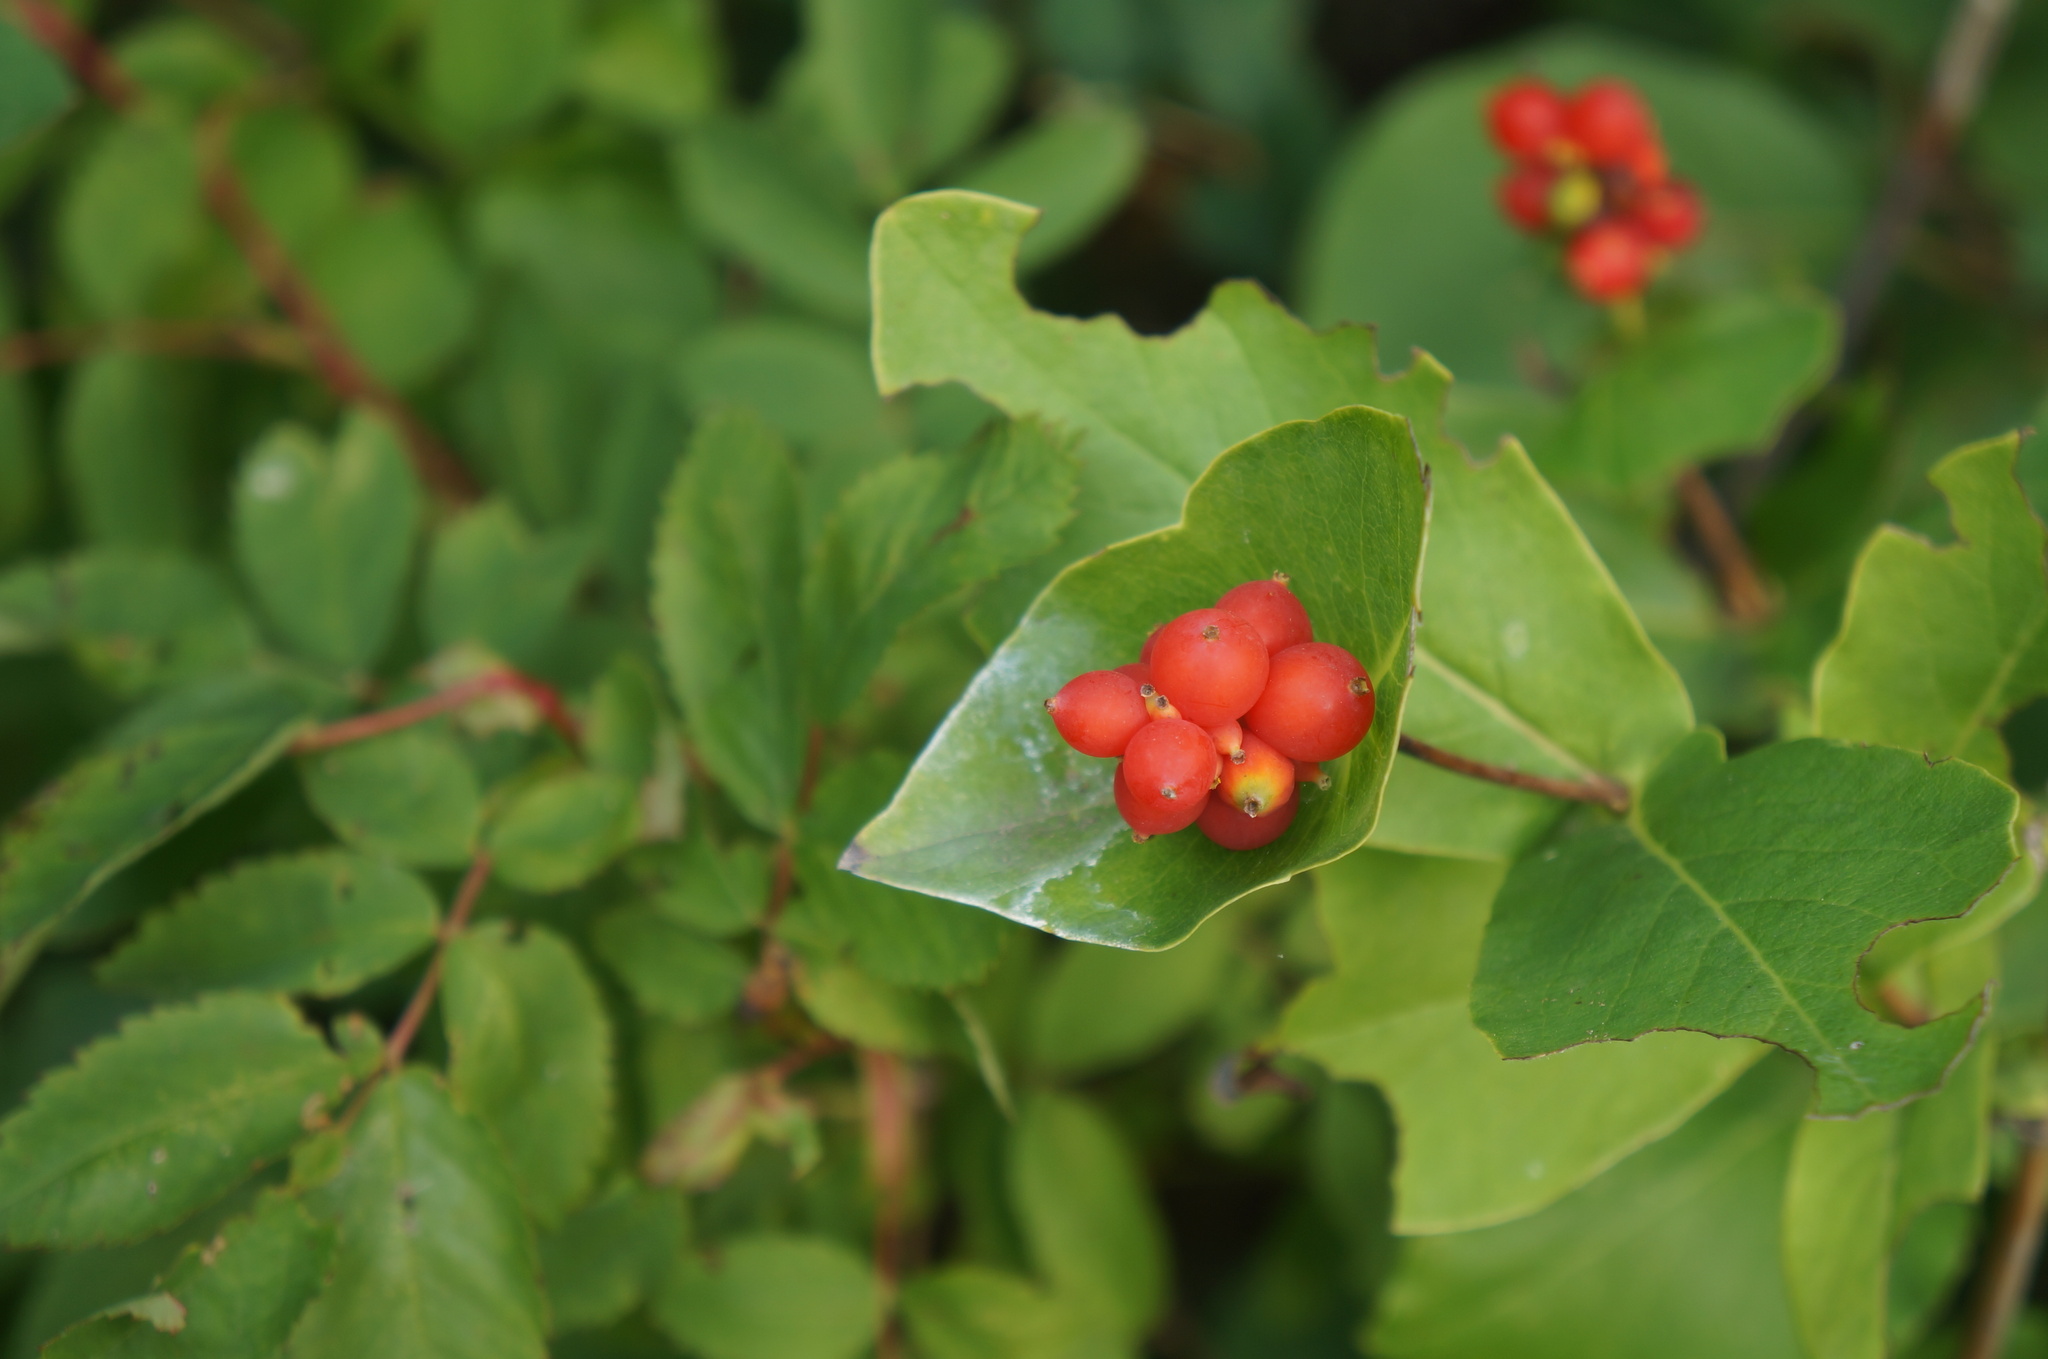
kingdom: Plantae
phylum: Tracheophyta
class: Magnoliopsida
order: Dipsacales
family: Caprifoliaceae
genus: Lonicera
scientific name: Lonicera dioica
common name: Limber honeysuckle
